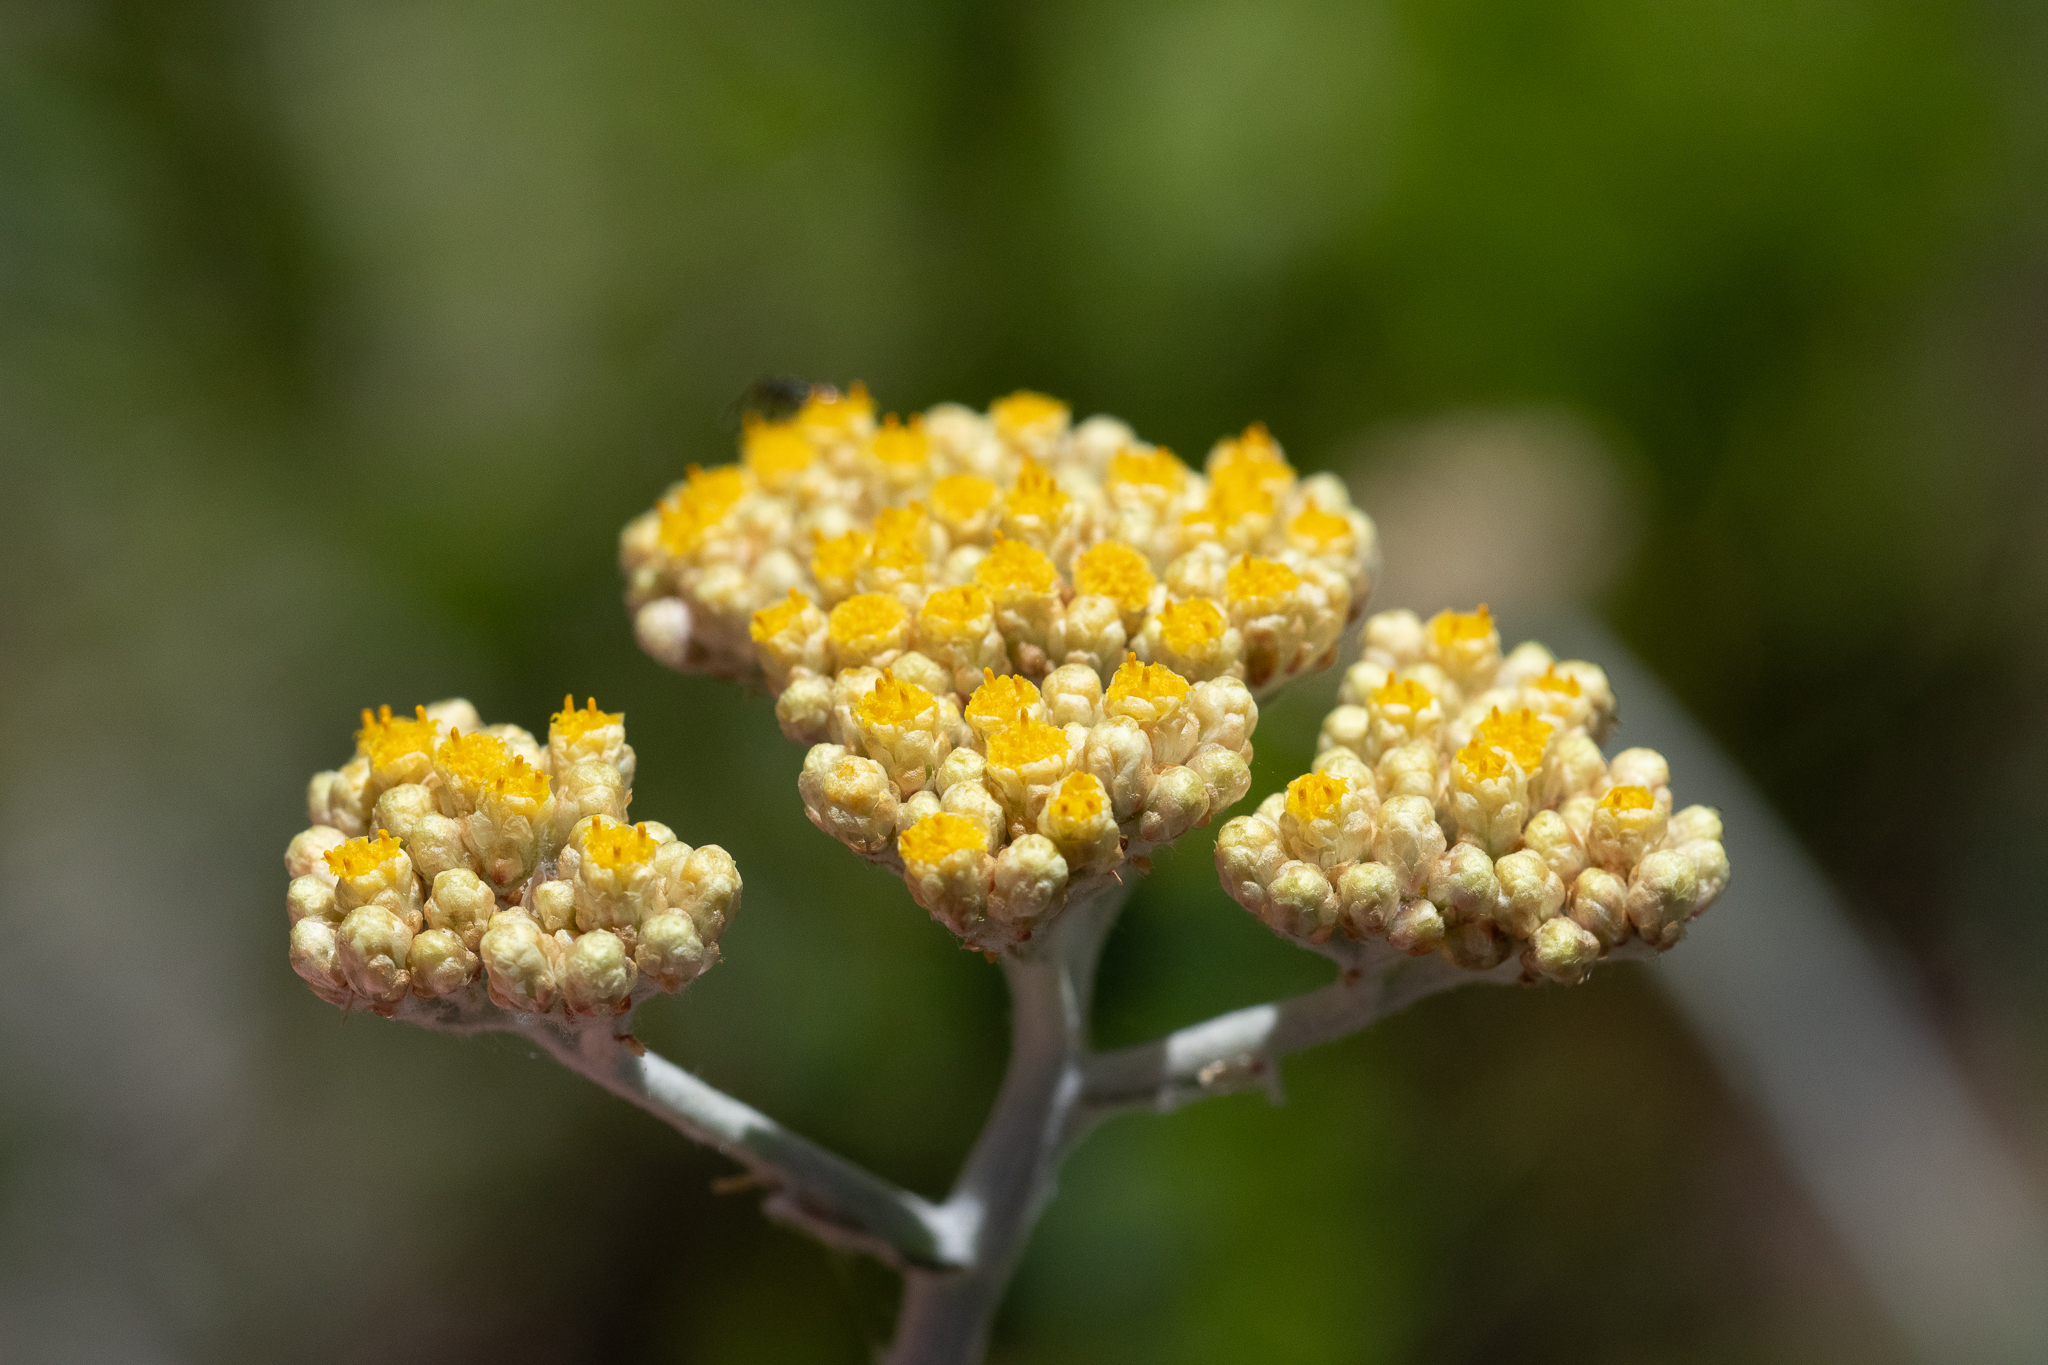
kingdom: Plantae
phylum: Tracheophyta
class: Magnoliopsida
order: Asterales
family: Asteraceae
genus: Helichrysum
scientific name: Helichrysum dasyanthum
